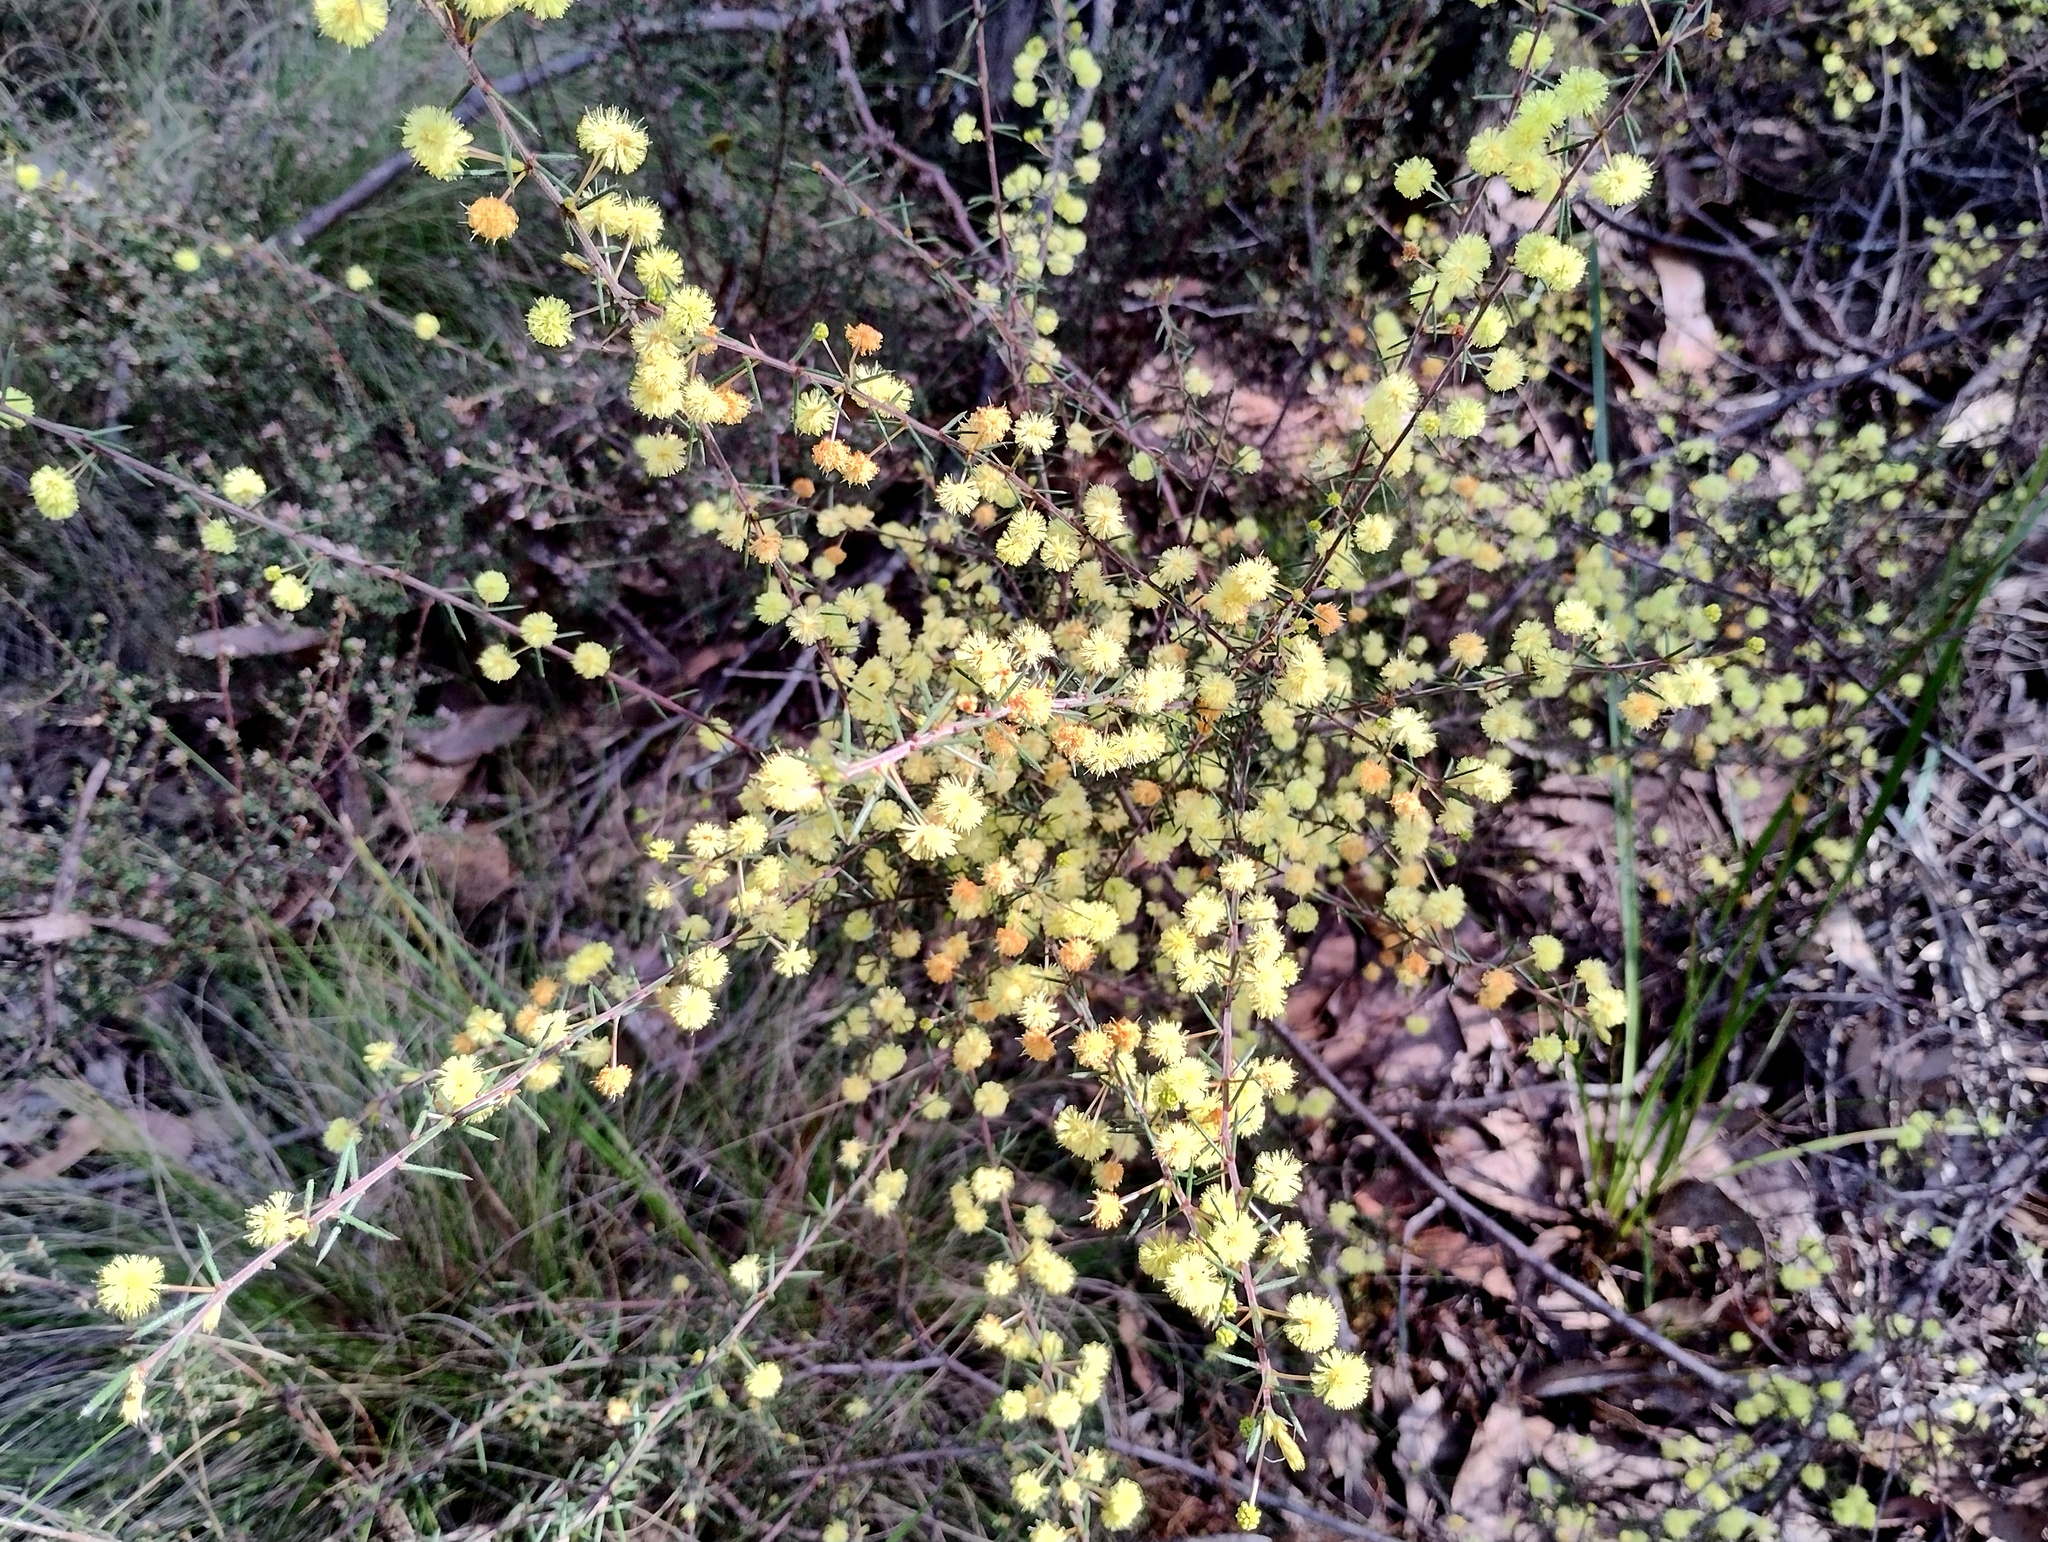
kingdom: Plantae
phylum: Tracheophyta
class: Magnoliopsida
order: Fabales
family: Fabaceae
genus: Acacia
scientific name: Acacia aculeatissima
